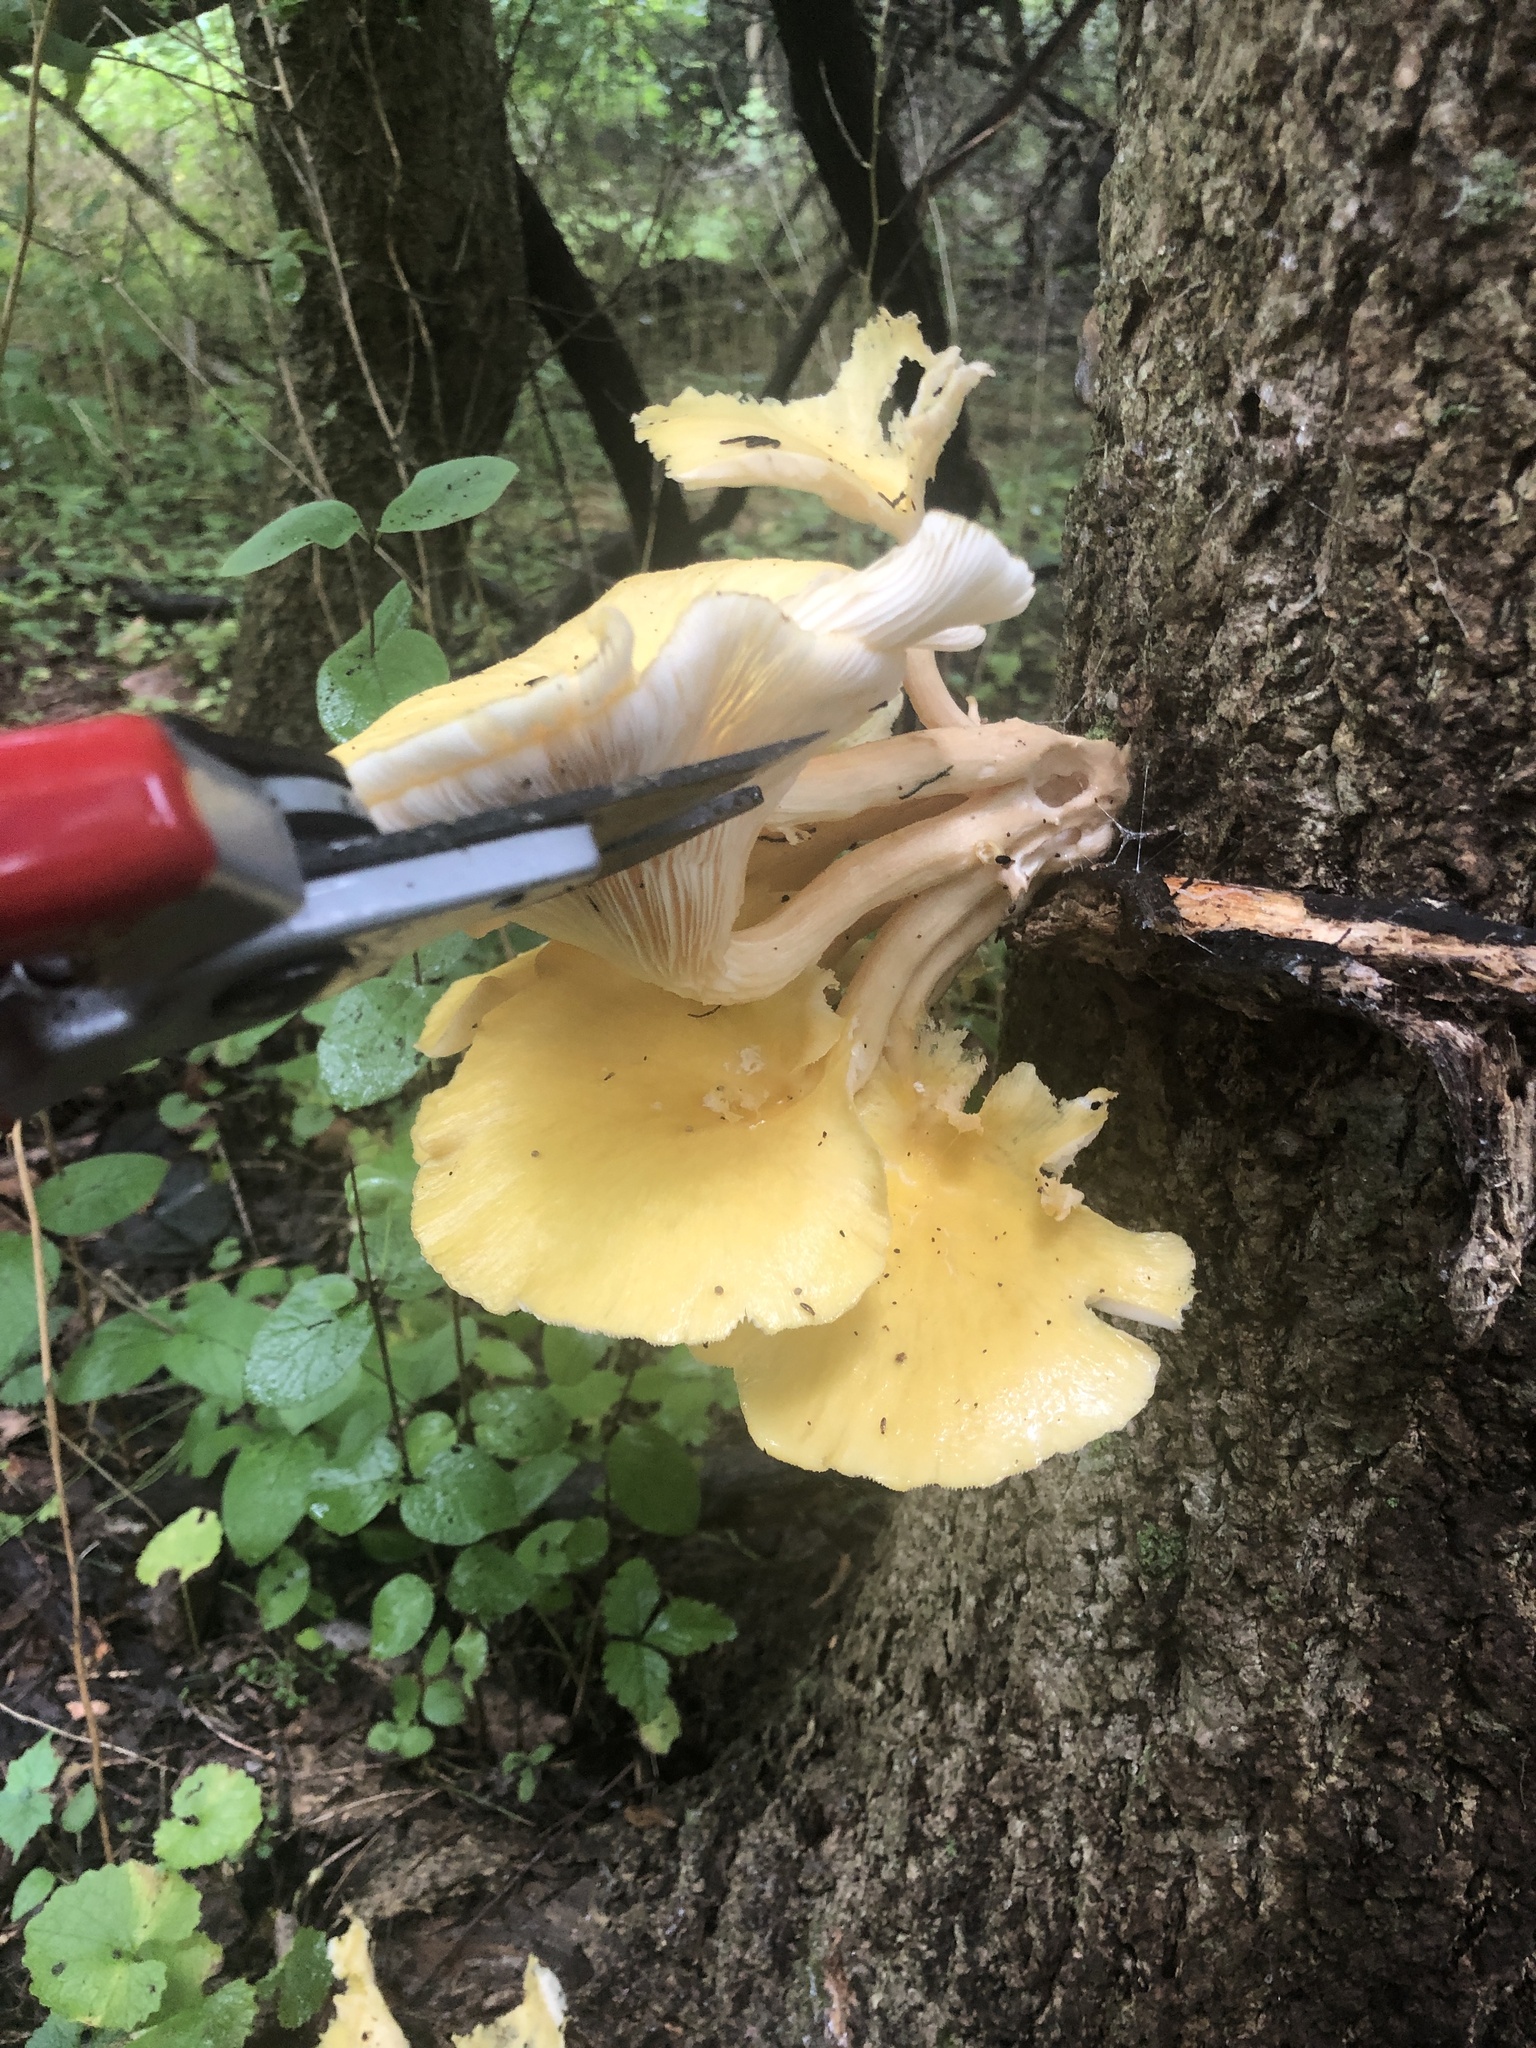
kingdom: Fungi
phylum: Basidiomycota
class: Agaricomycetes
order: Agaricales
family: Pleurotaceae
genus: Pleurotus
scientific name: Pleurotus citrinopileatus
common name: Golden oyster mushroom
